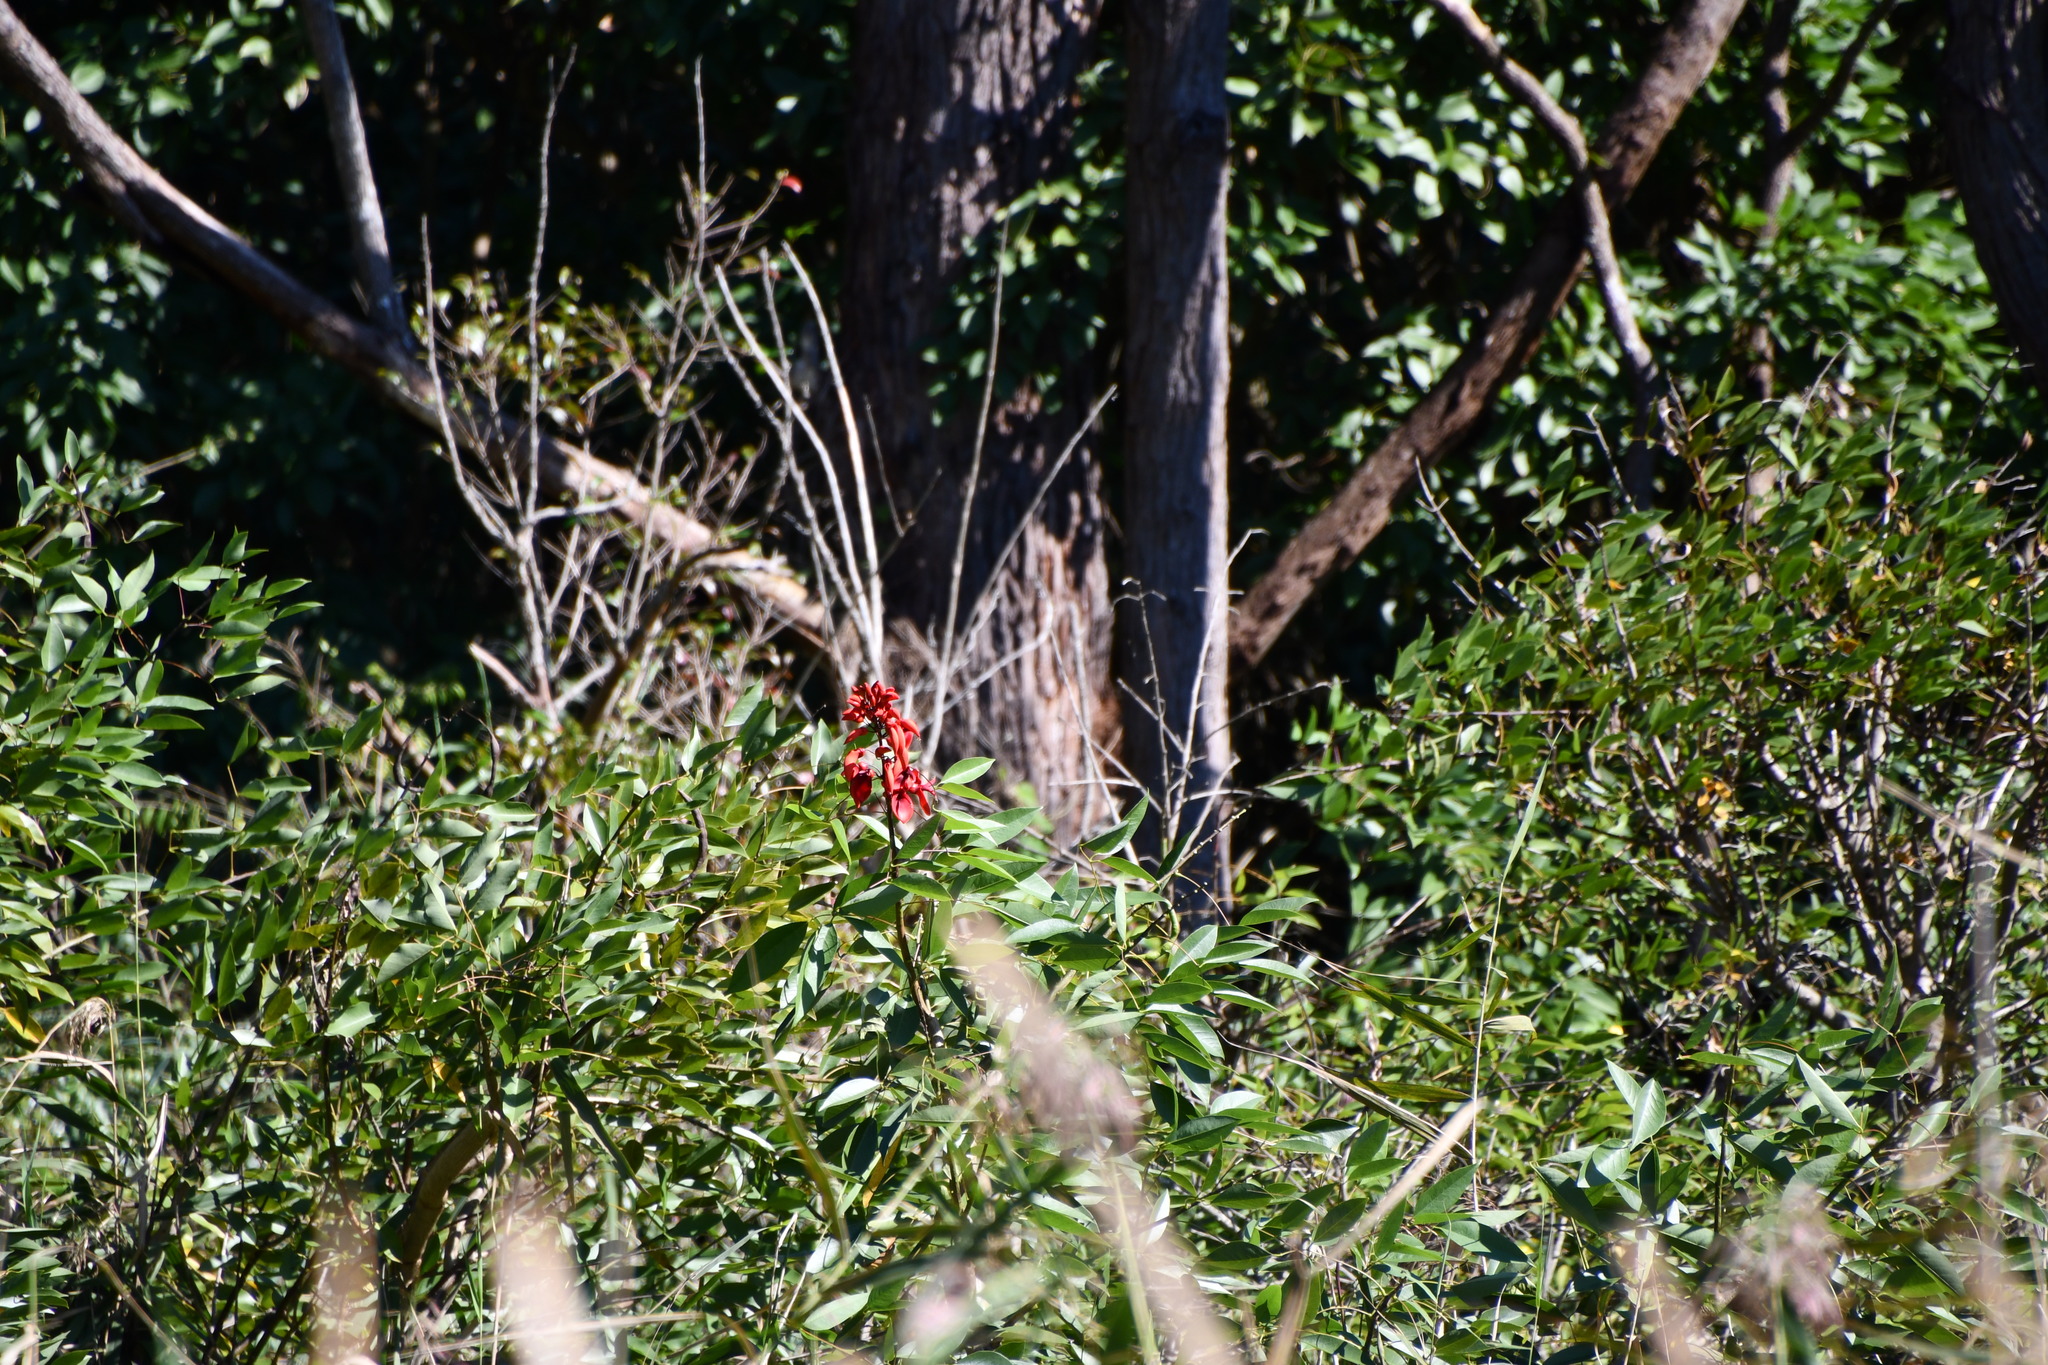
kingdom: Plantae
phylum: Tracheophyta
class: Magnoliopsida
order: Fabales
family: Fabaceae
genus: Erythrina
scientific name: Erythrina crista-galli
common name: Cockspur coral tree
